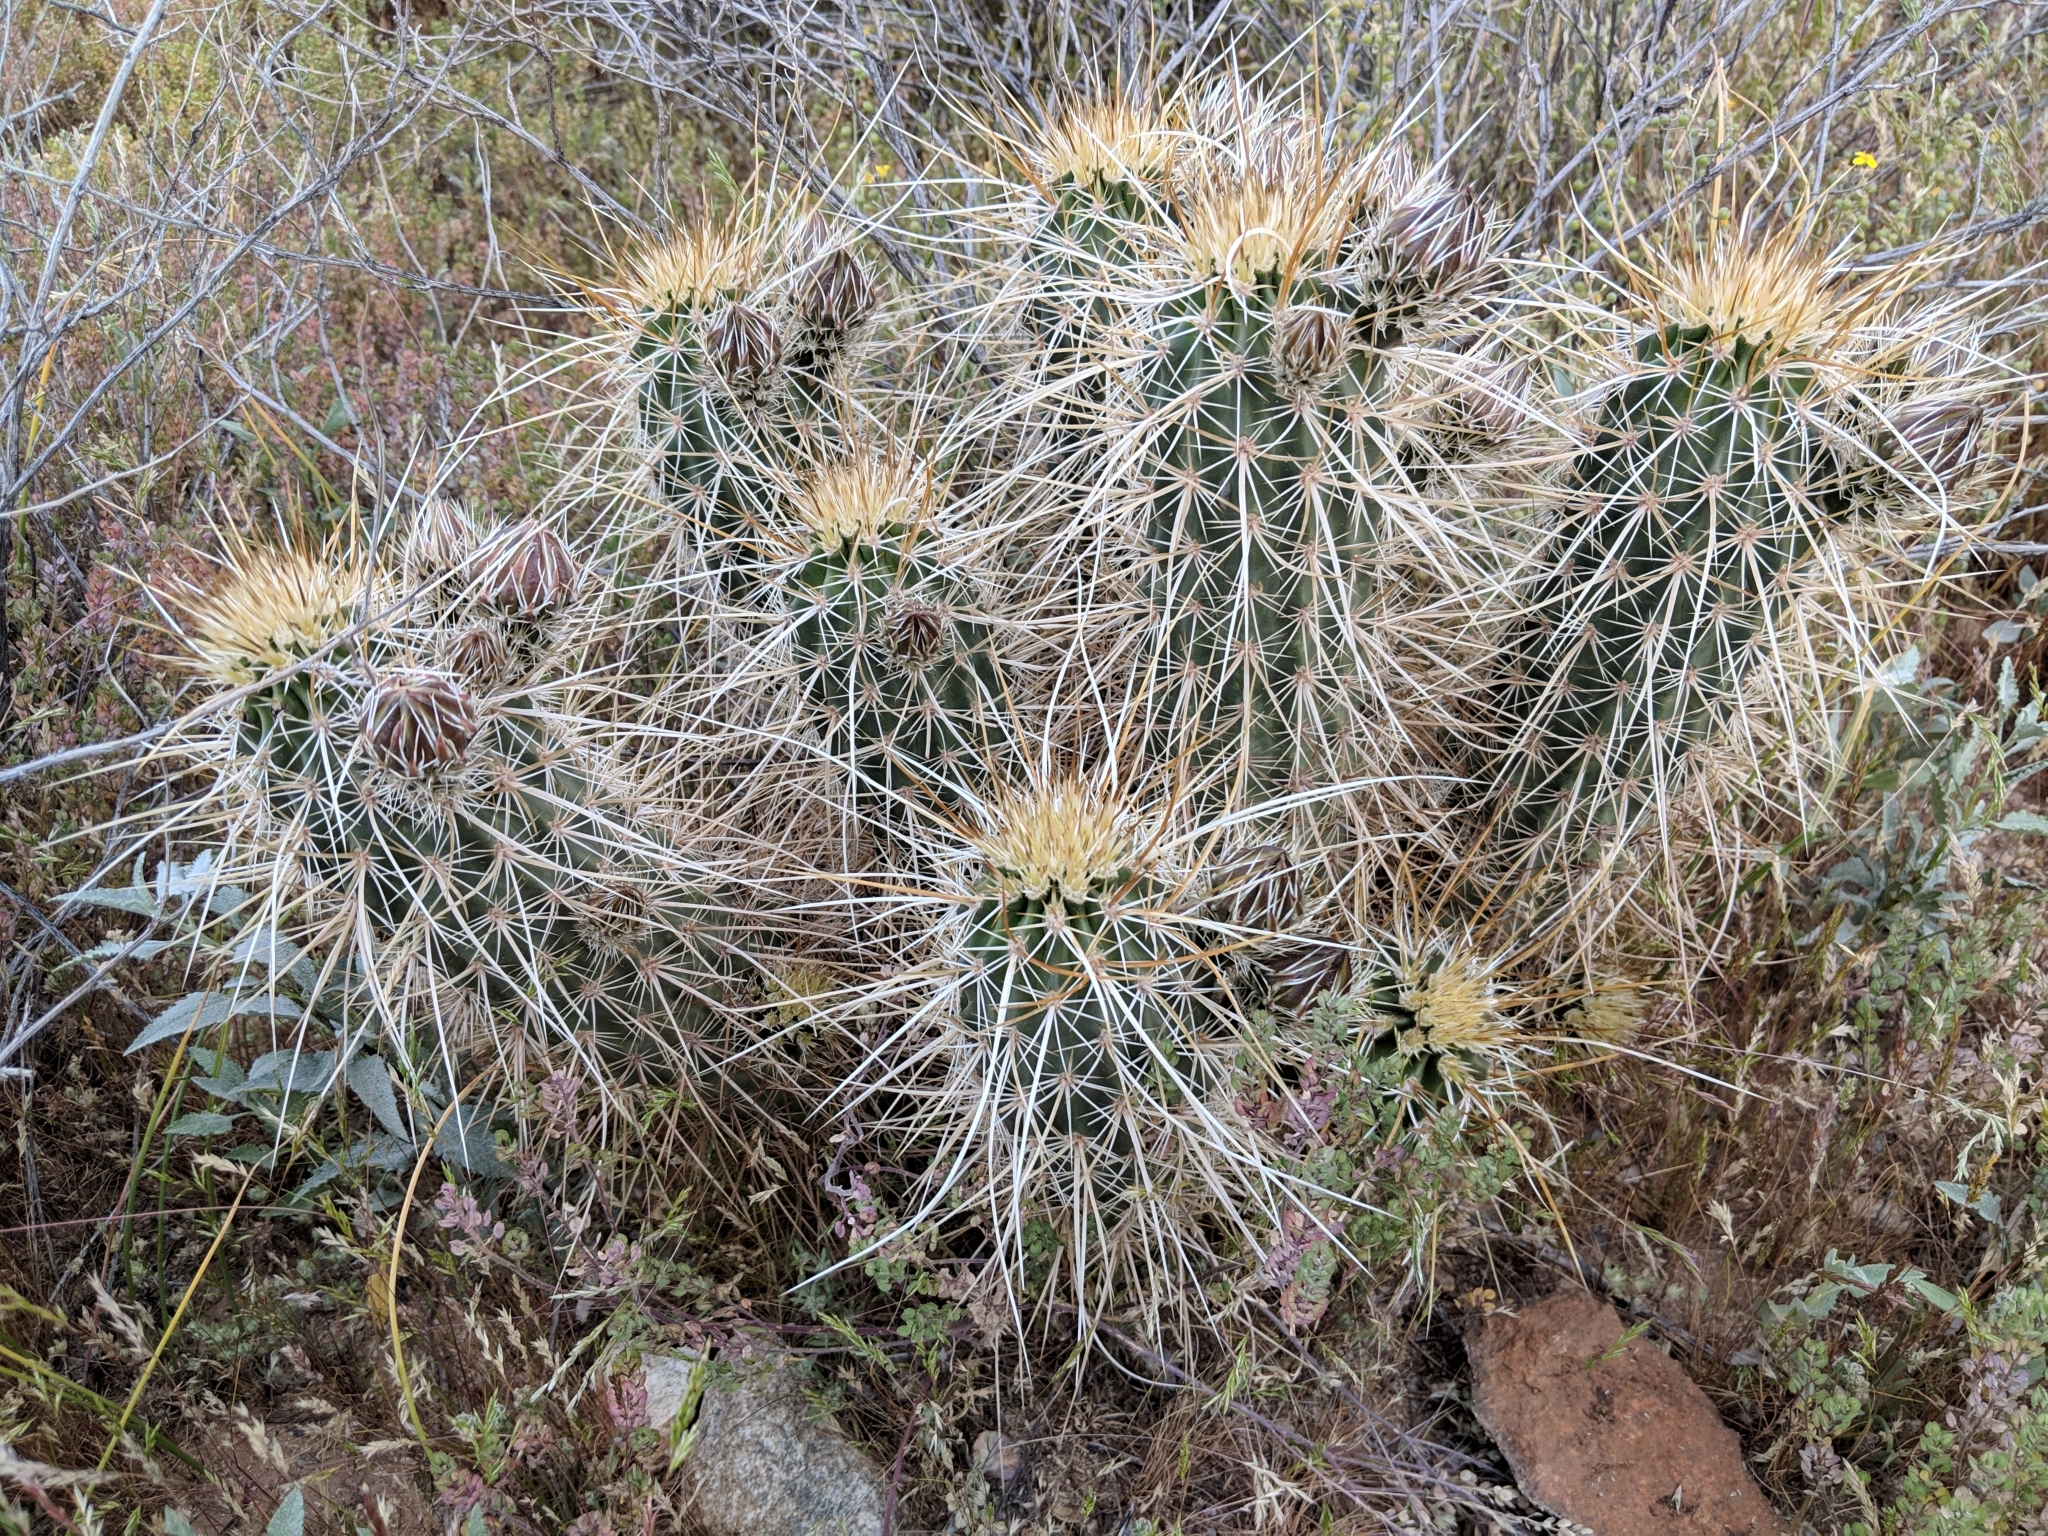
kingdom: Plantae
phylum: Tracheophyta
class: Magnoliopsida
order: Caryophyllales
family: Cactaceae
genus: Echinocereus
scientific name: Echinocereus engelmannii
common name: Engelmann's hedgehog cactus
